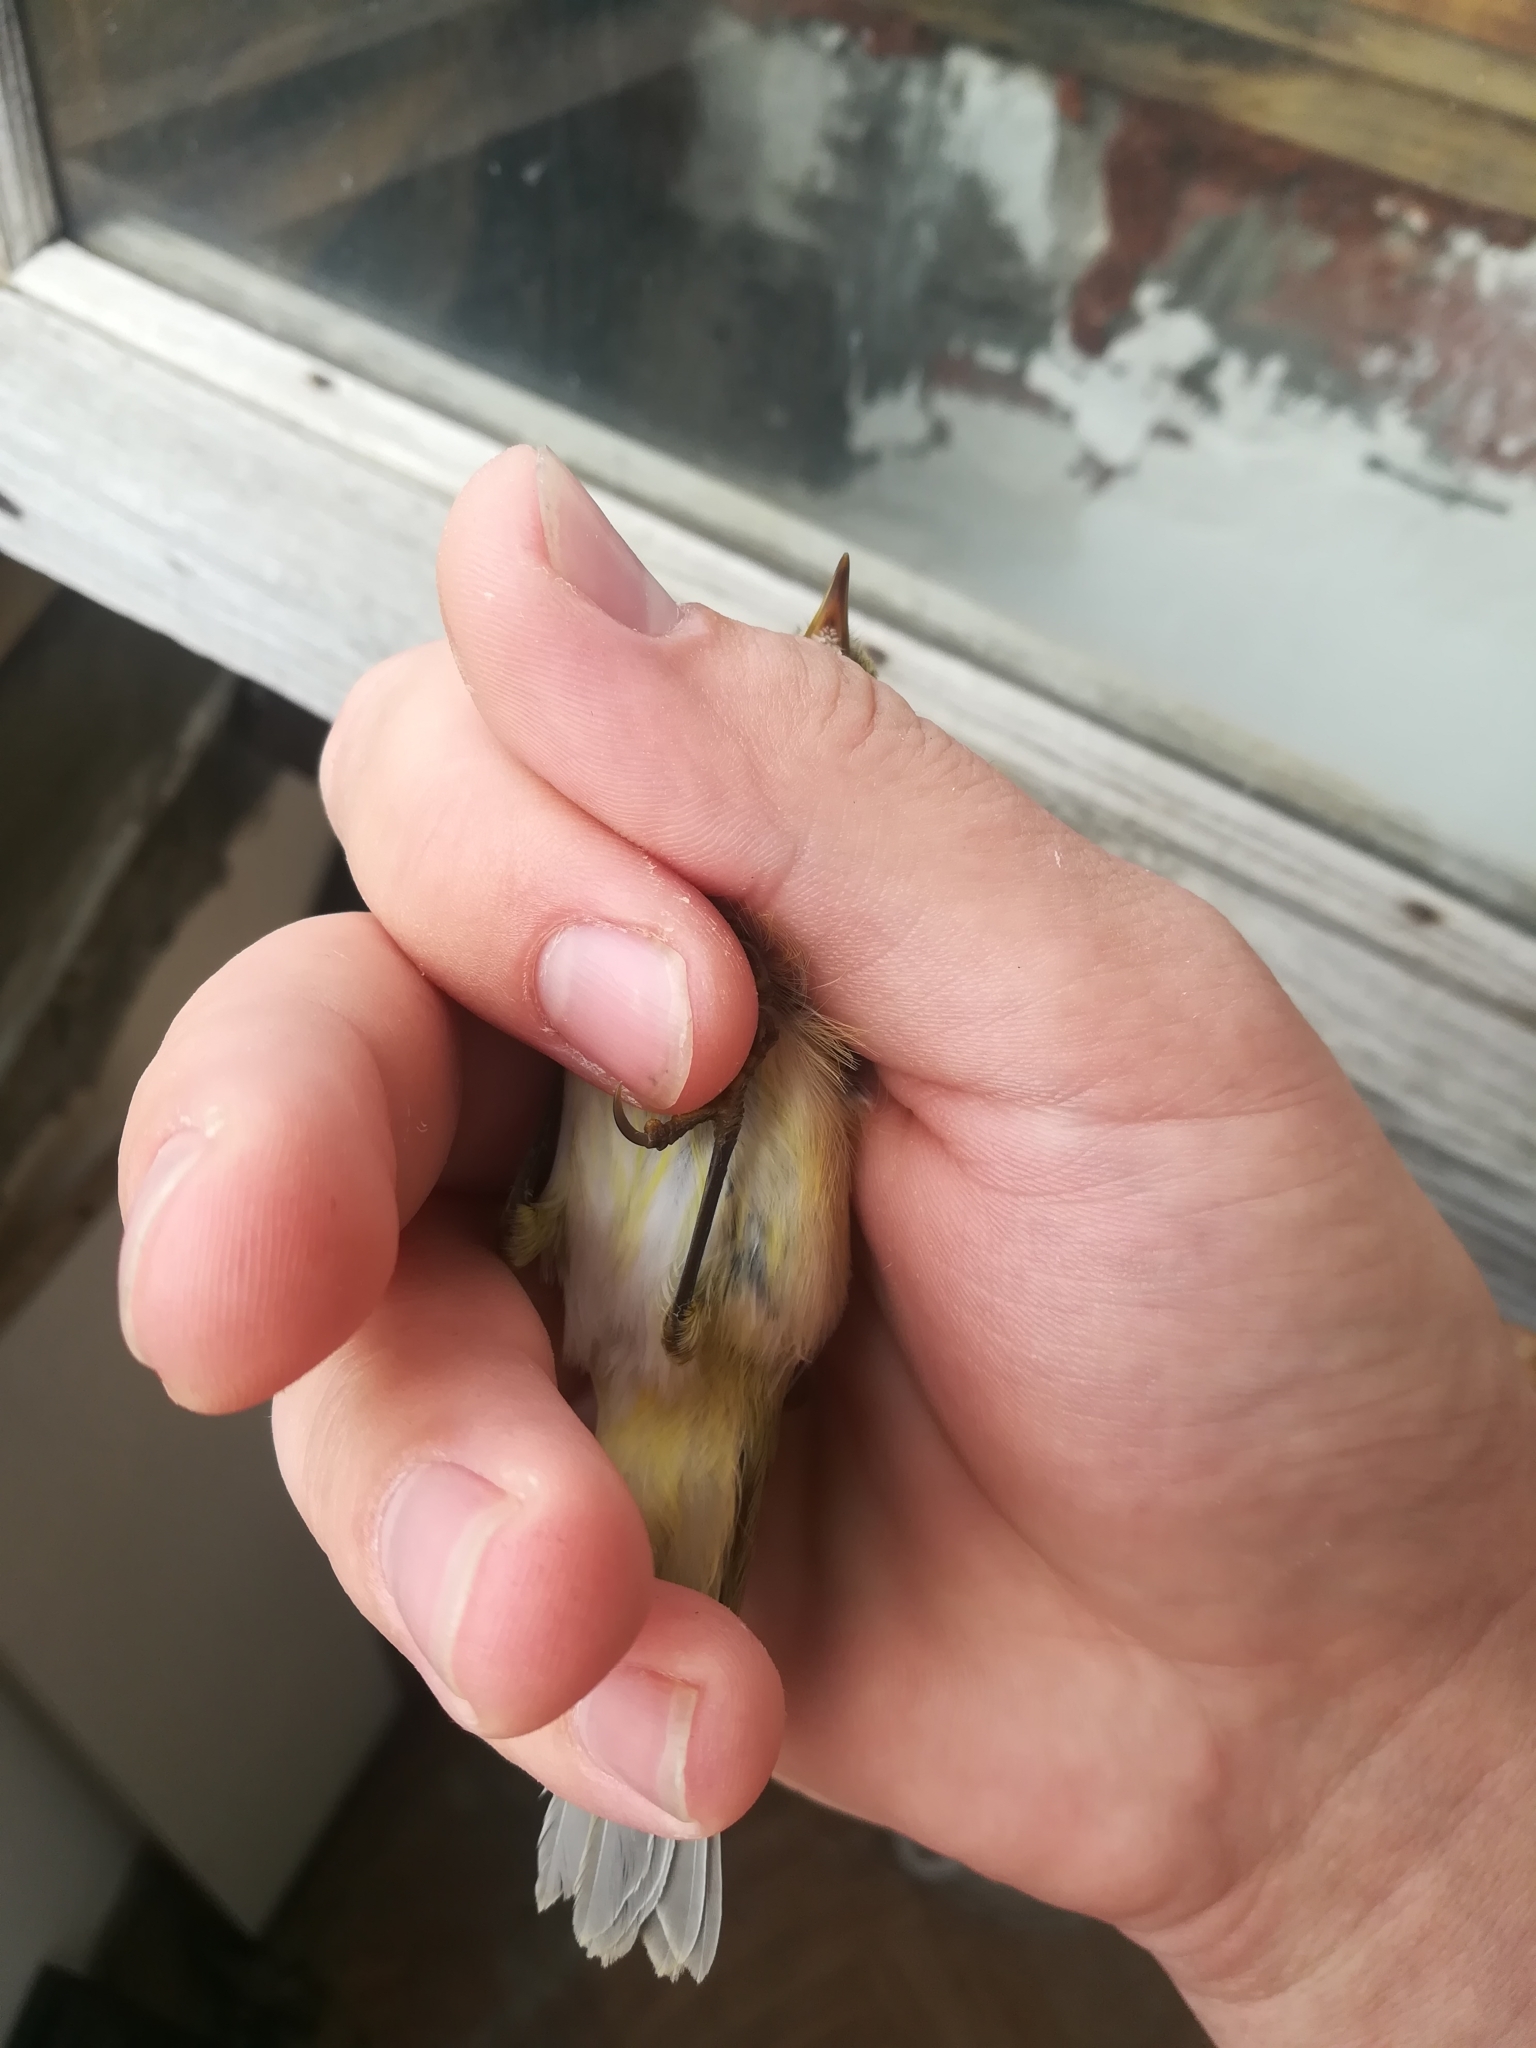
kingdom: Animalia
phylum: Chordata
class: Aves
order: Passeriformes
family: Phylloscopidae
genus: Phylloscopus
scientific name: Phylloscopus collybita
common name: Common chiffchaff
